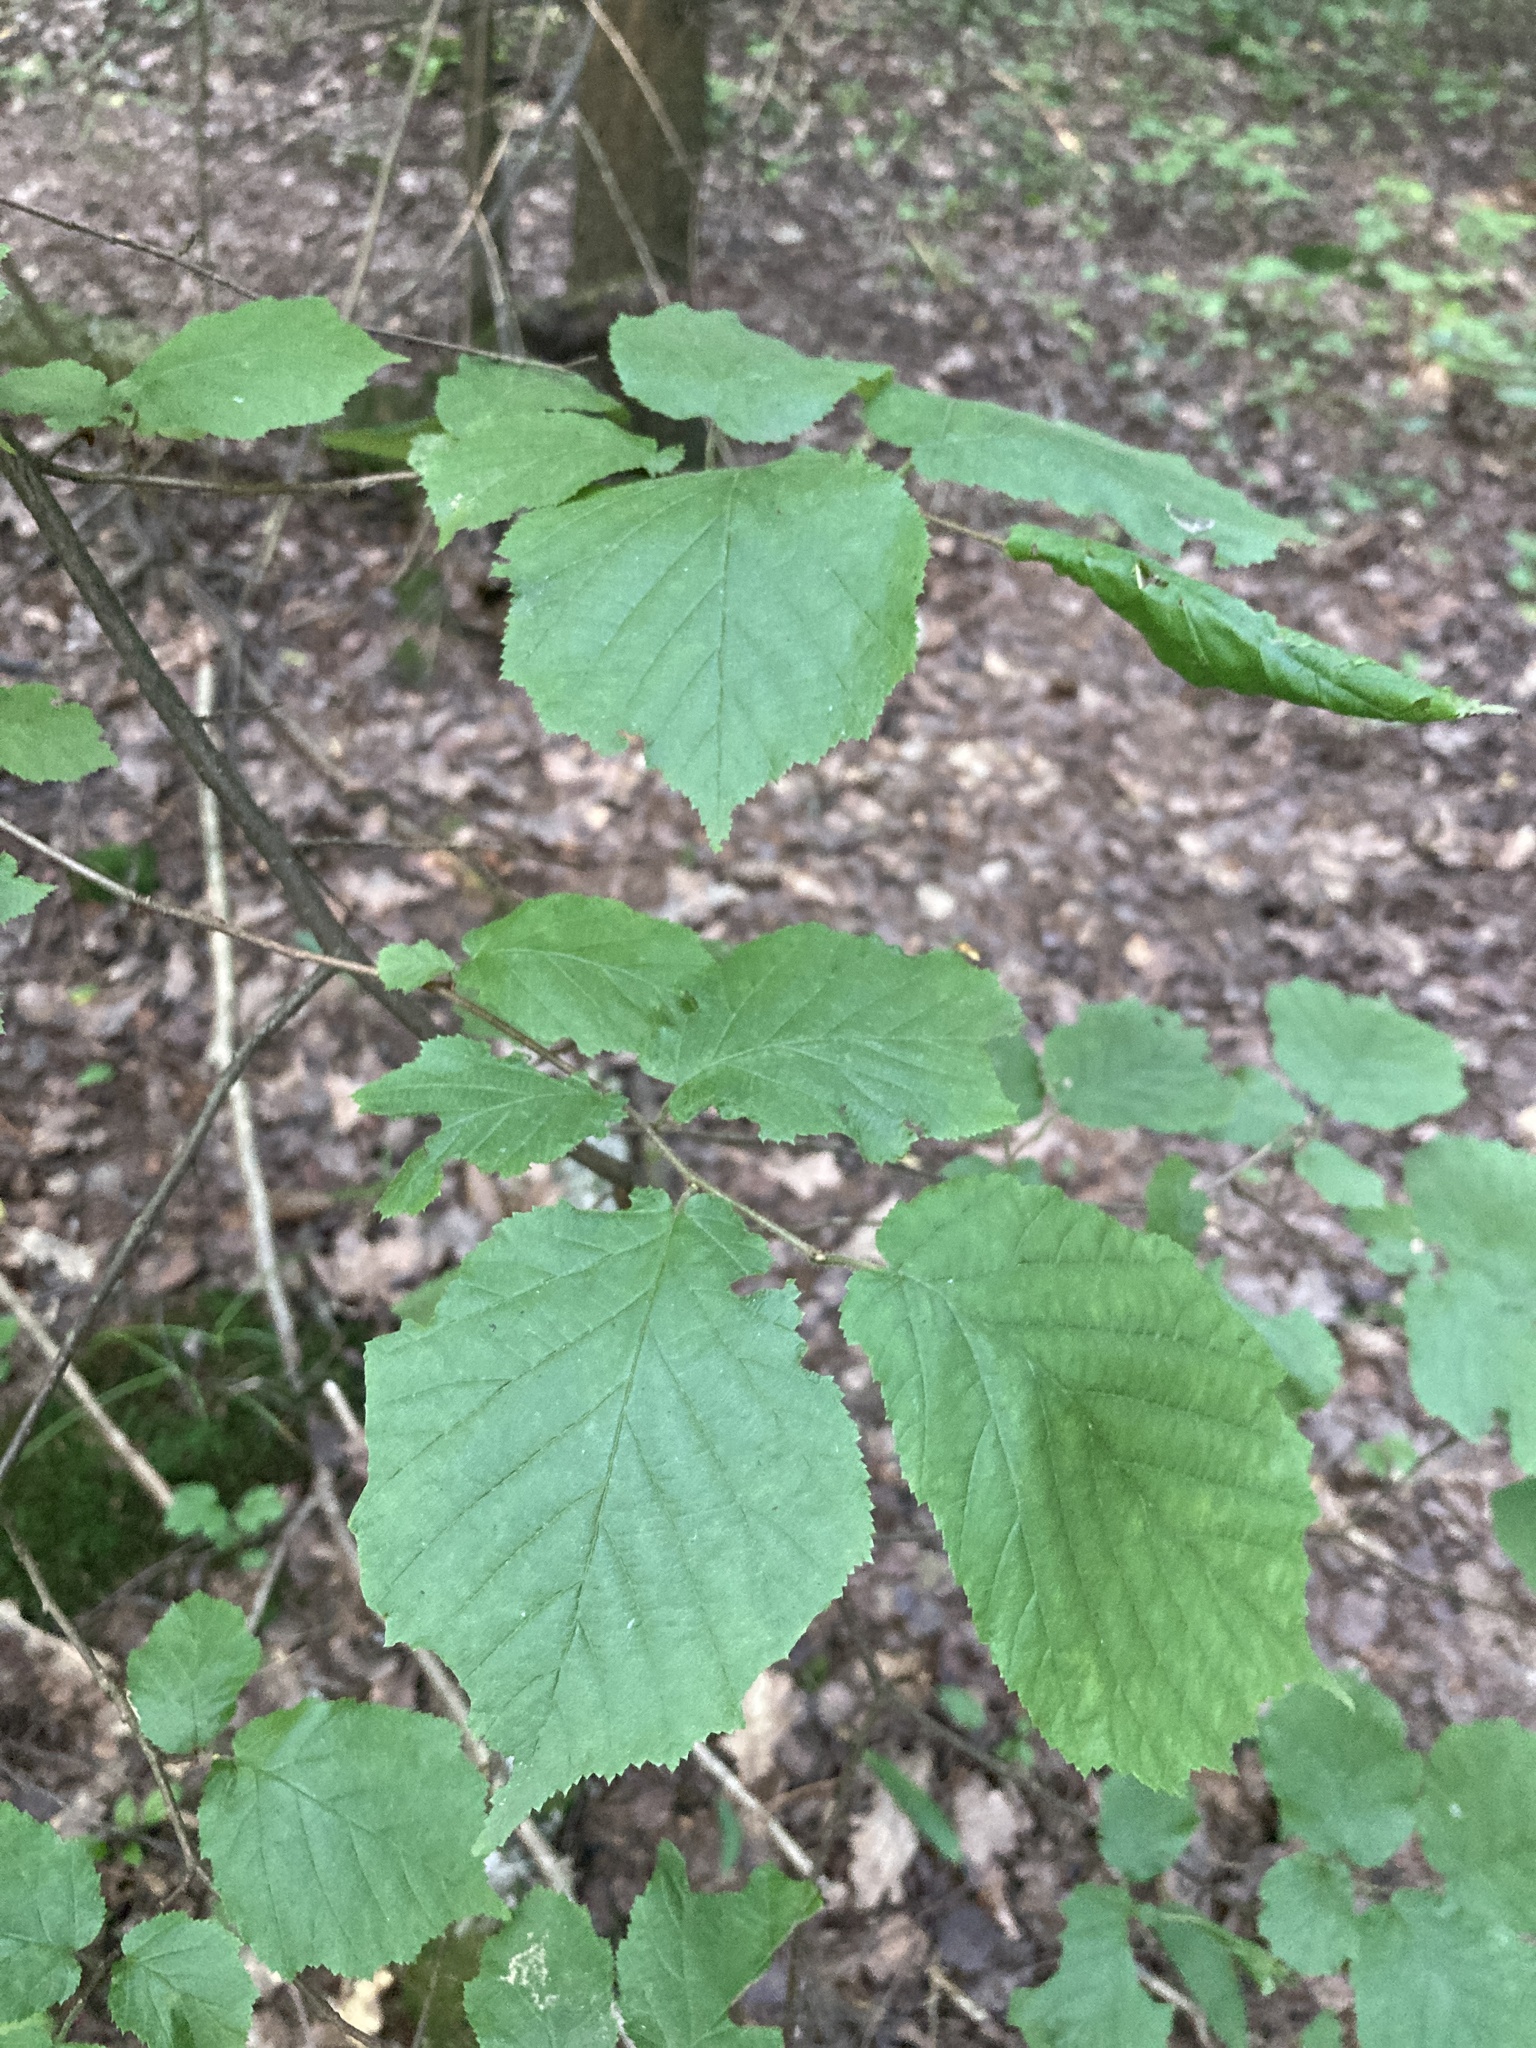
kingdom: Plantae
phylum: Tracheophyta
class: Magnoliopsida
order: Fagales
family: Betulaceae
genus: Corylus
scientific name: Corylus avellana
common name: European hazel
